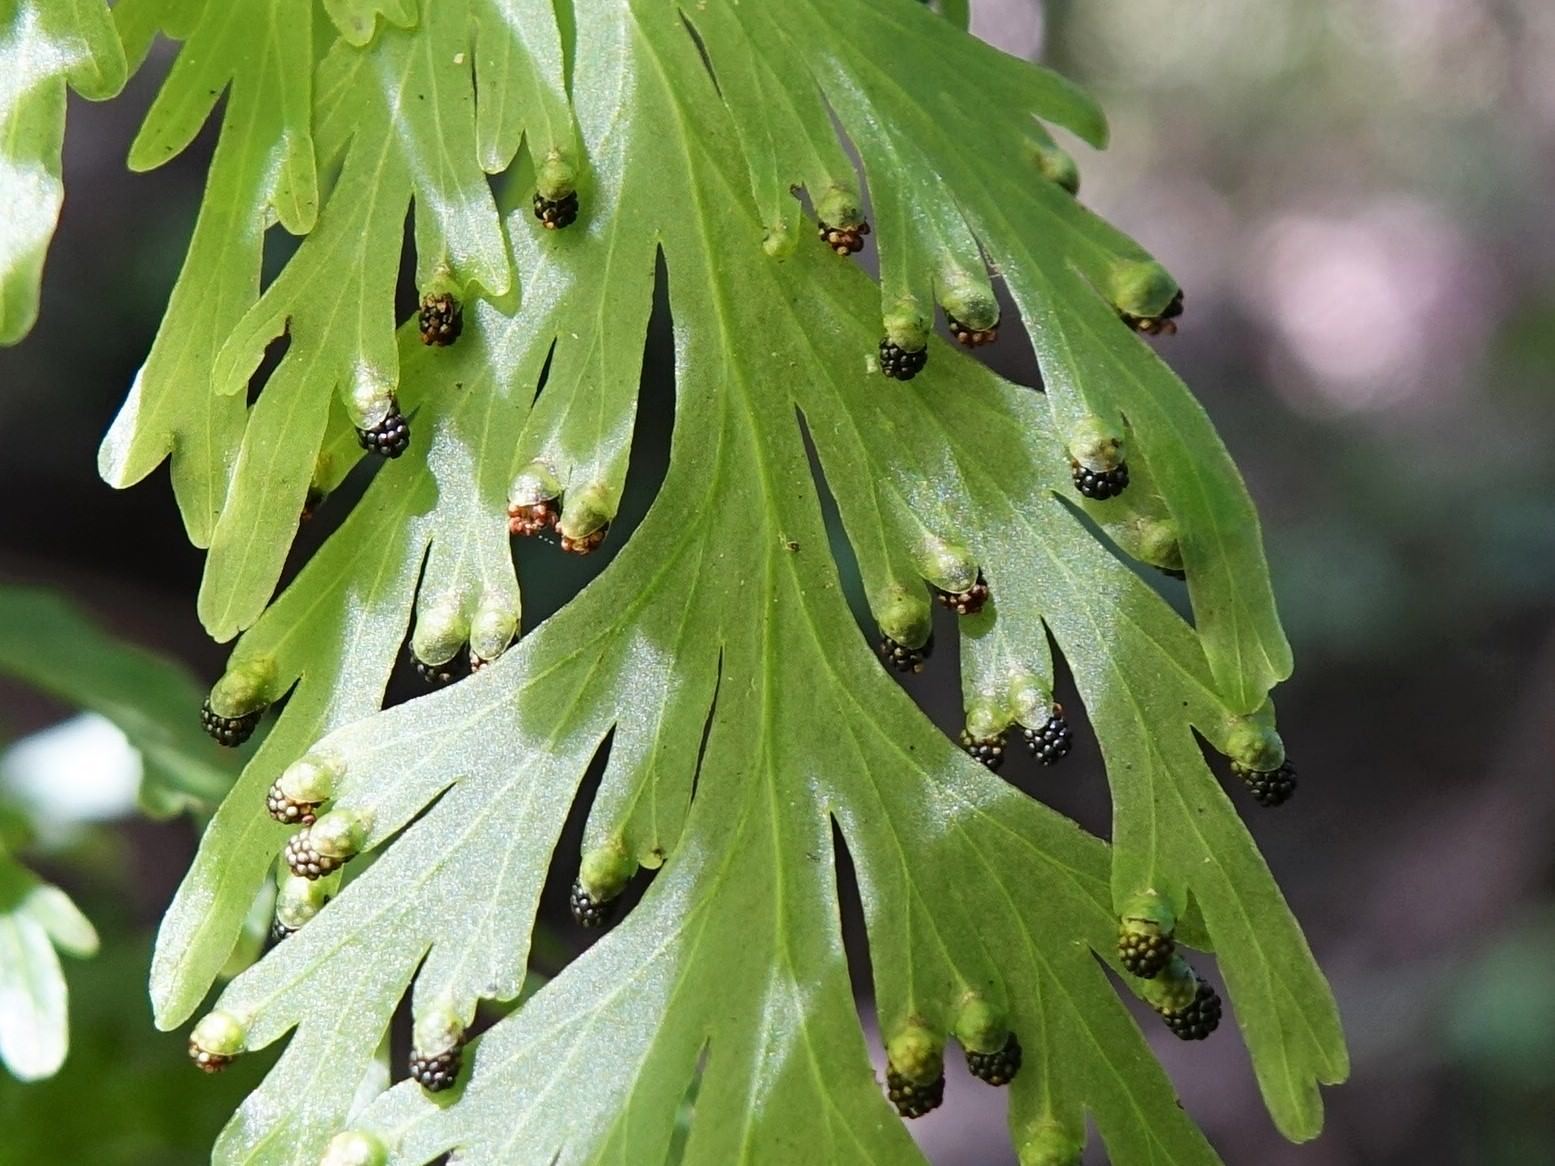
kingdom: Plantae
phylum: Tracheophyta
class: Polypodiopsida
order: Hymenophyllales
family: Hymenophyllaceae
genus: Hymenophyllum
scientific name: Hymenophyllum dilatatum
